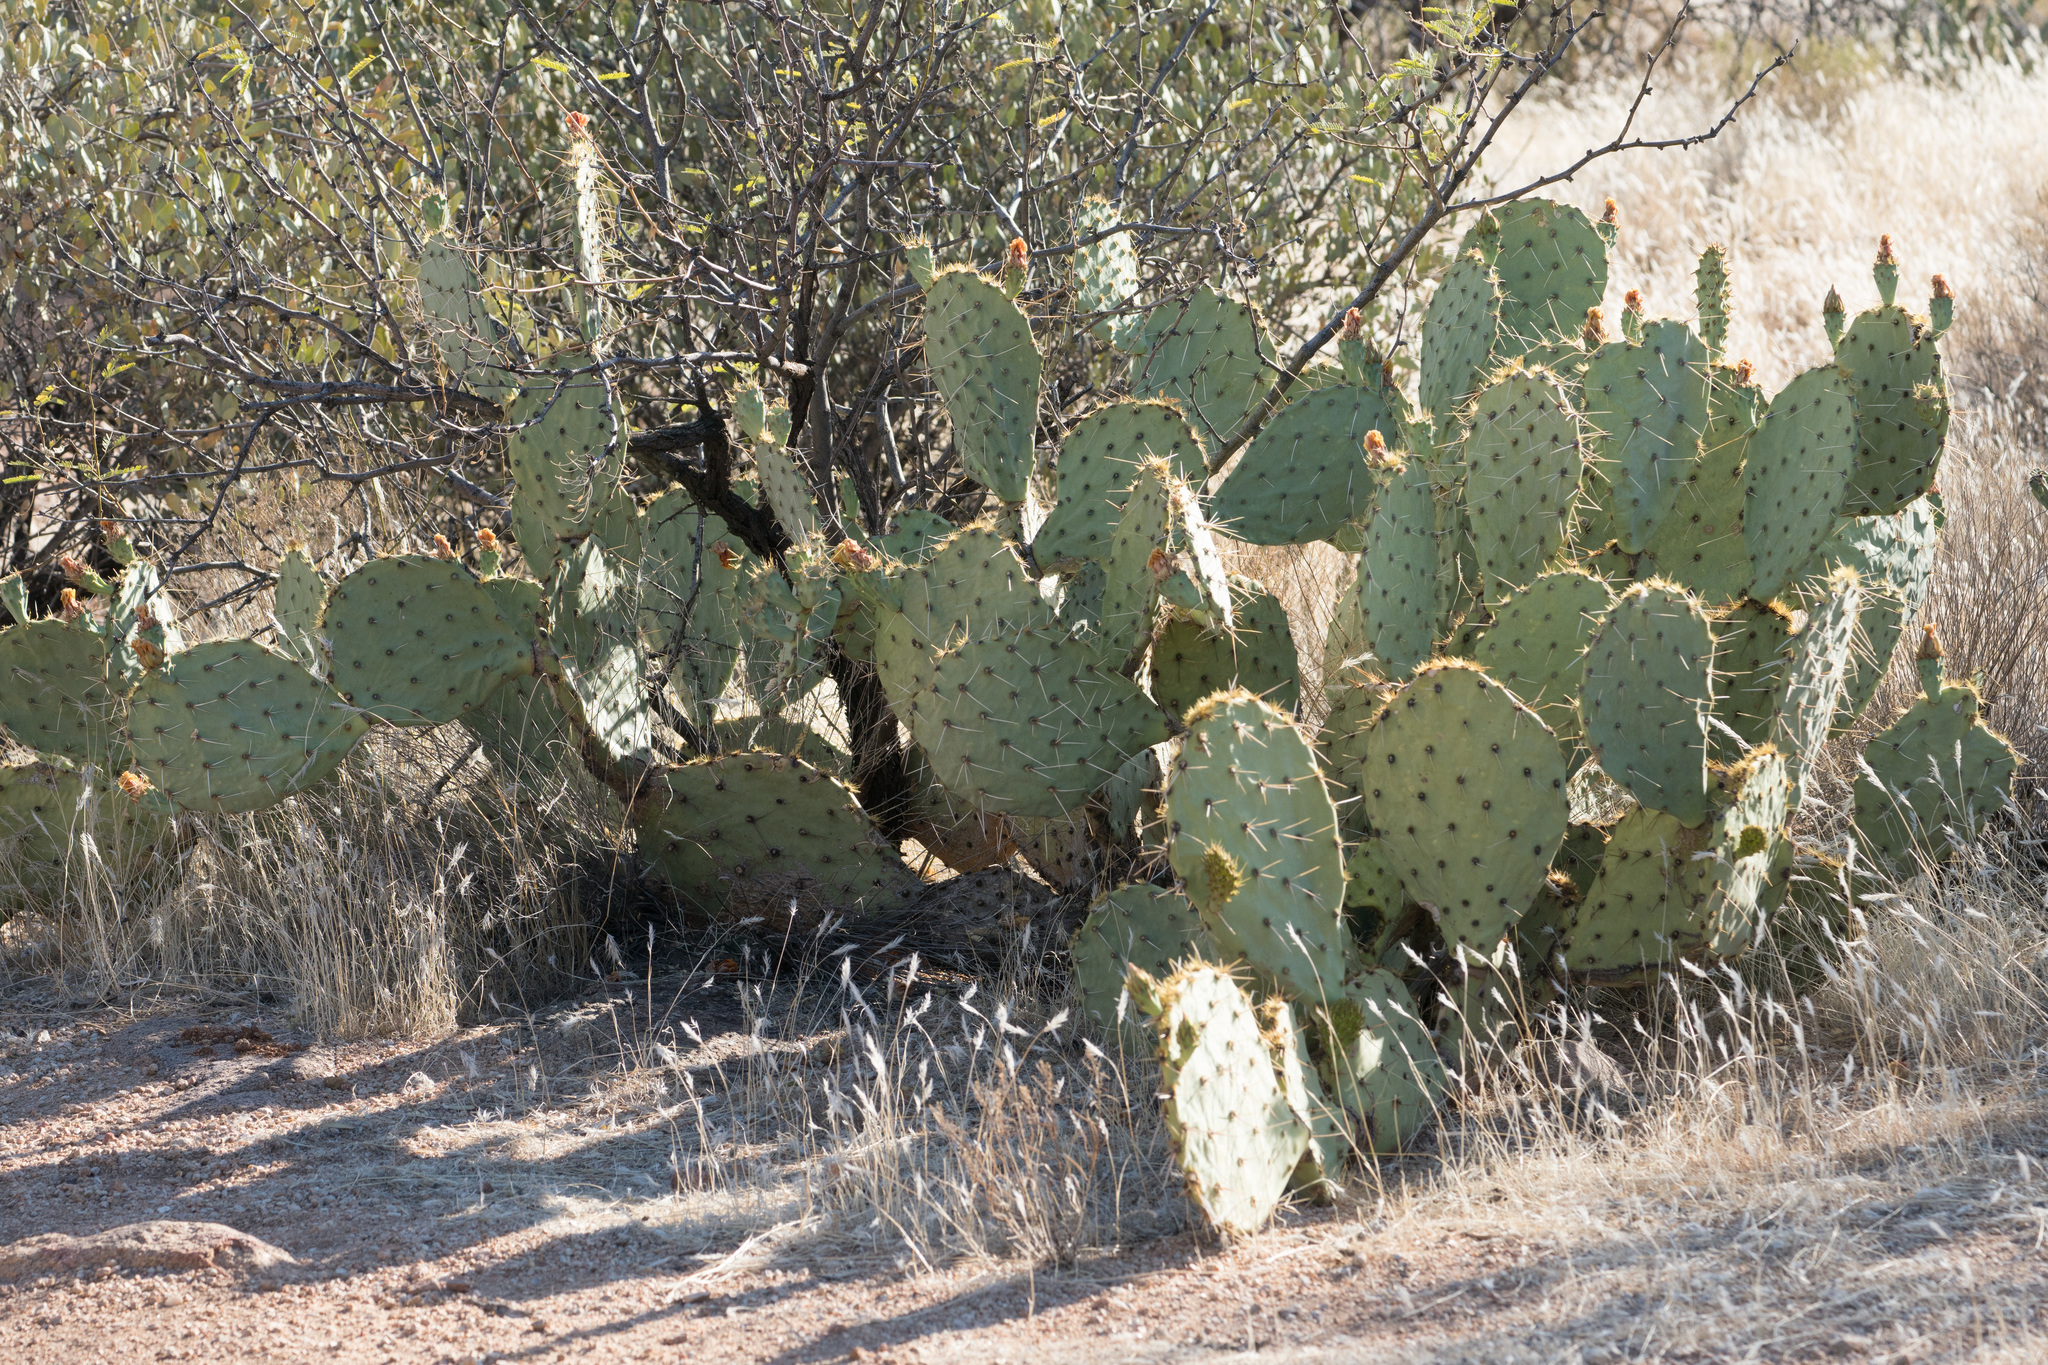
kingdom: Plantae
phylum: Tracheophyta
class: Magnoliopsida
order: Caryophyllales
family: Cactaceae
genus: Opuntia
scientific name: Opuntia engelmannii
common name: Cactus-apple
